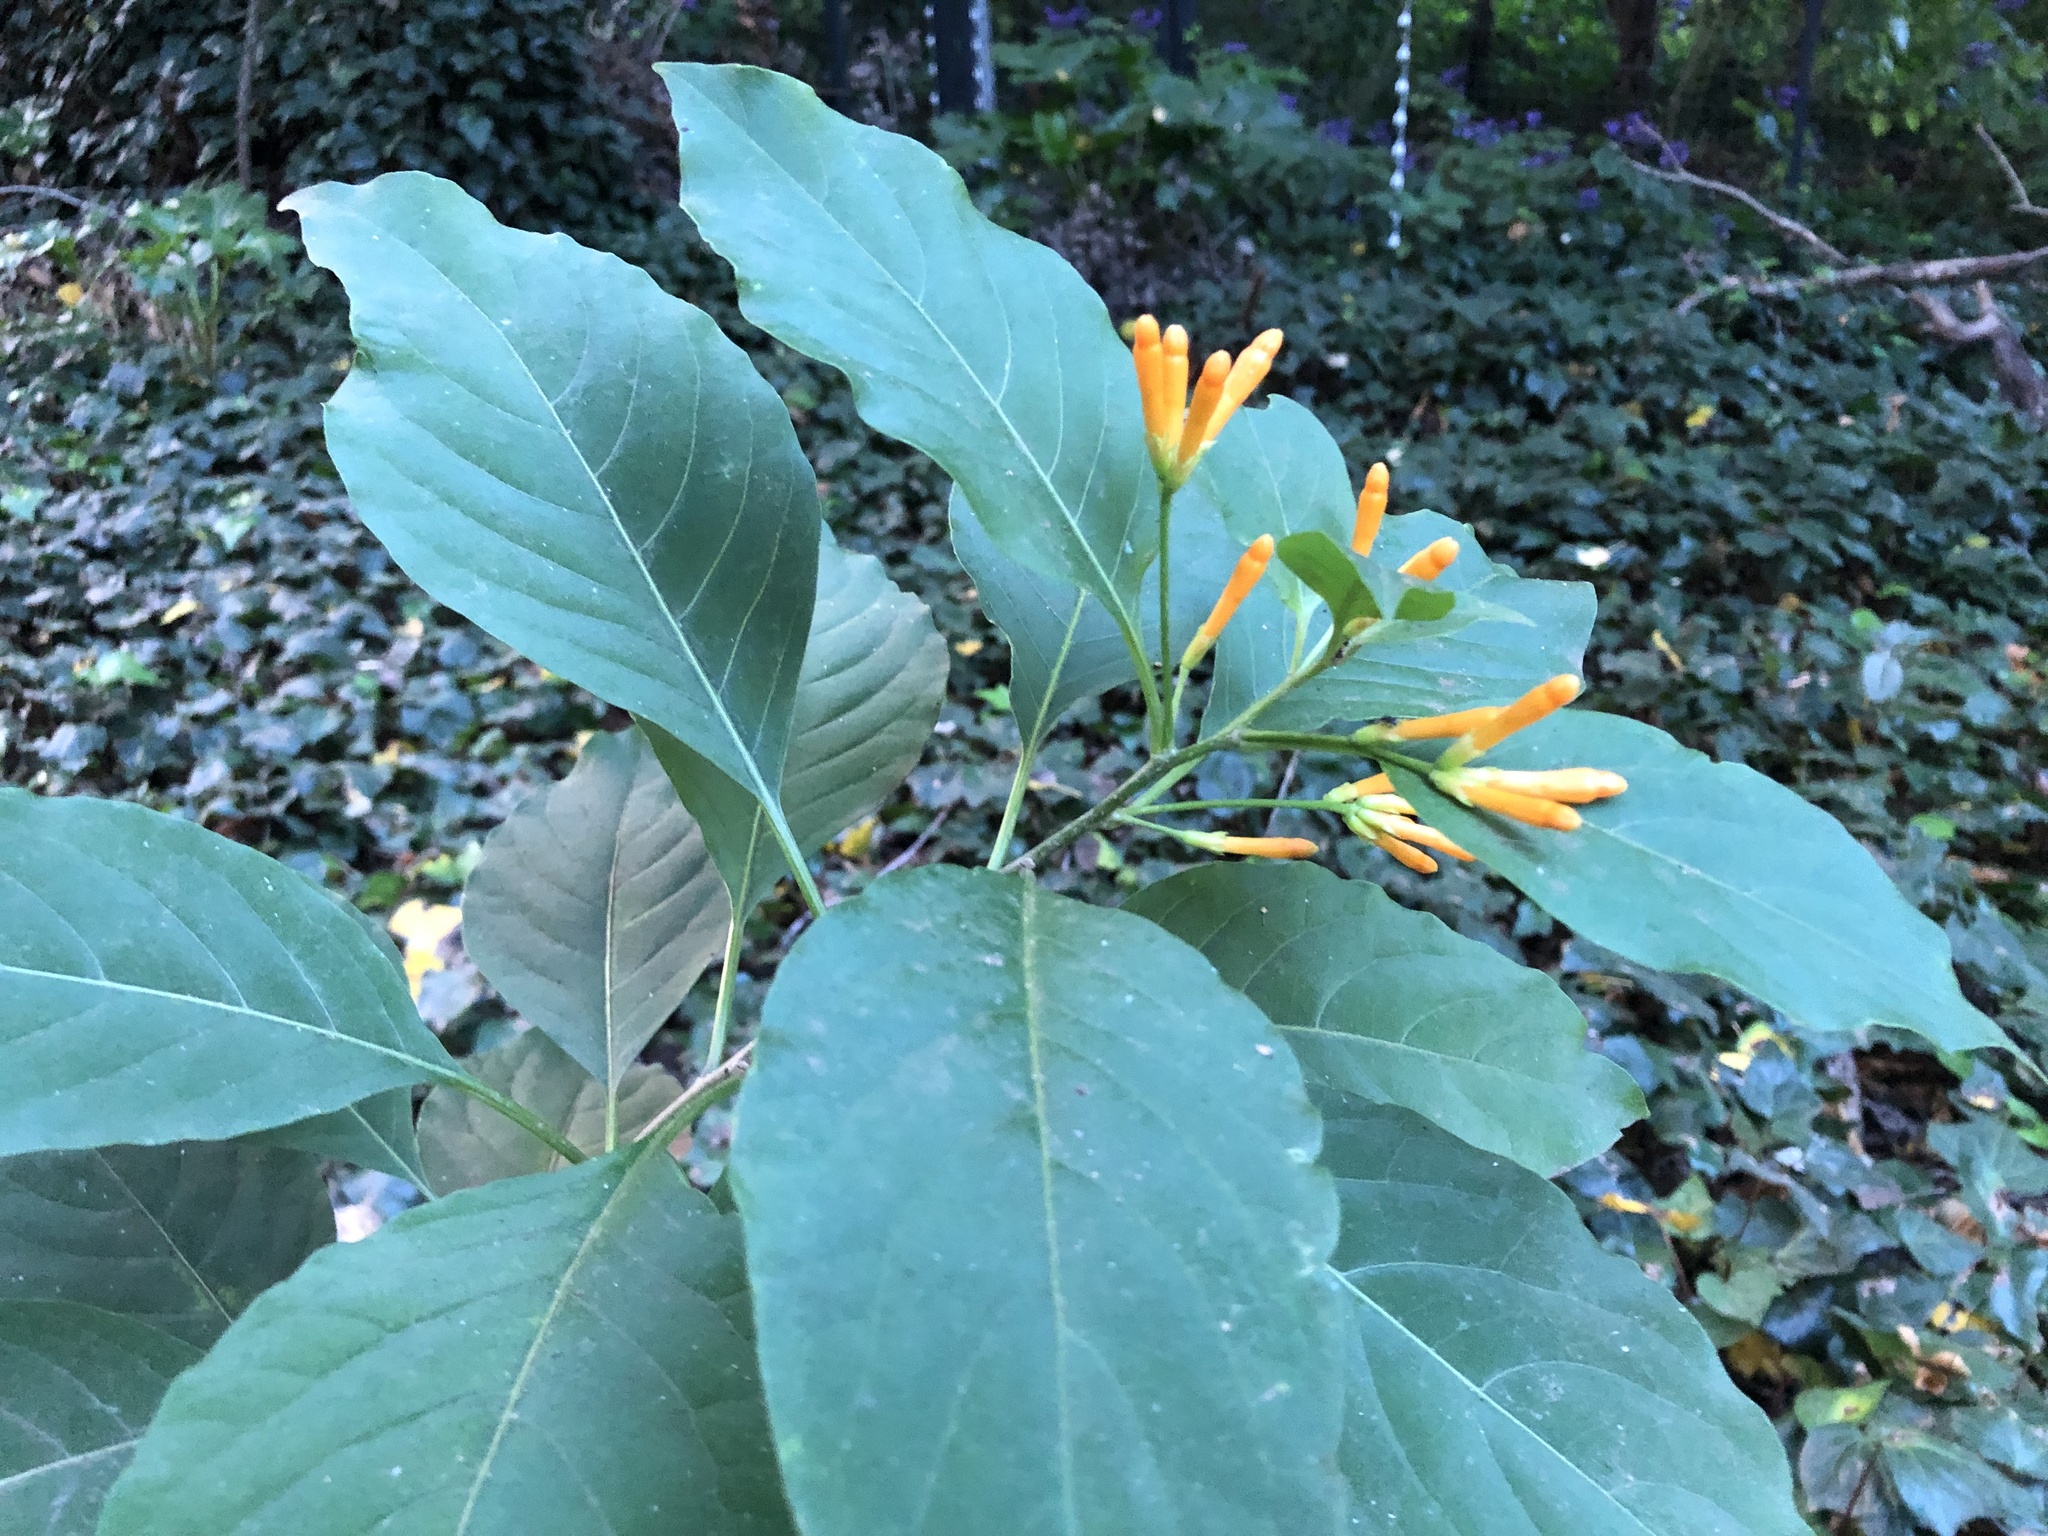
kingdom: Plantae
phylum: Tracheophyta
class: Magnoliopsida
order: Solanales
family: Solanaceae
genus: Cestrum
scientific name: Cestrum aurantiacum
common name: Orange cestrum
